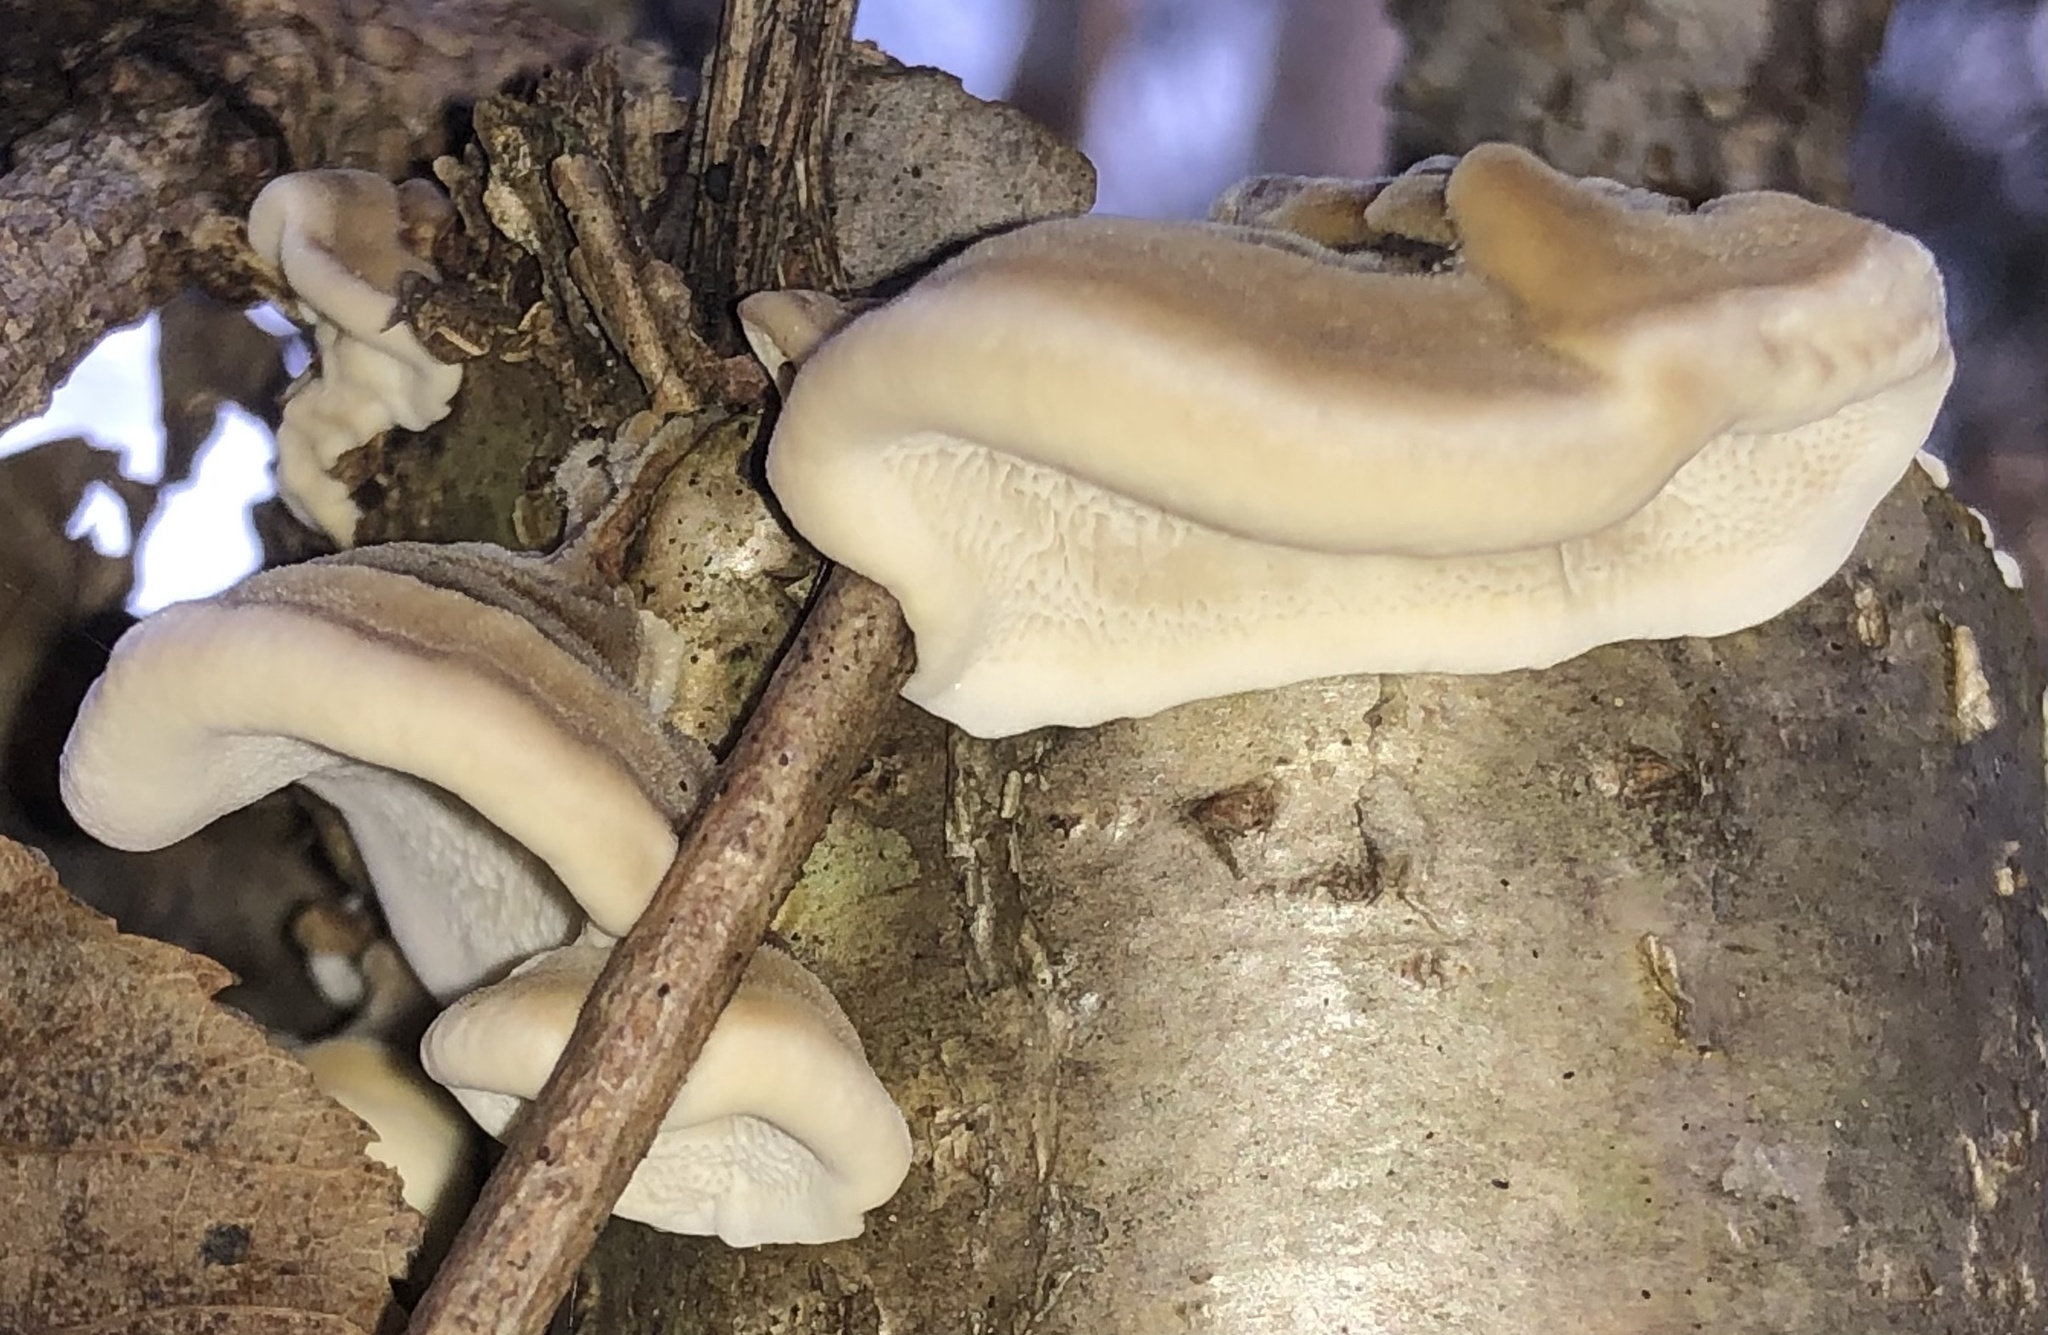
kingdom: Fungi
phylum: Basidiomycota
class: Agaricomycetes
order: Polyporales
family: Polyporaceae
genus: Trametes
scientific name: Trametes ochracea
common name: Ochre bracket
